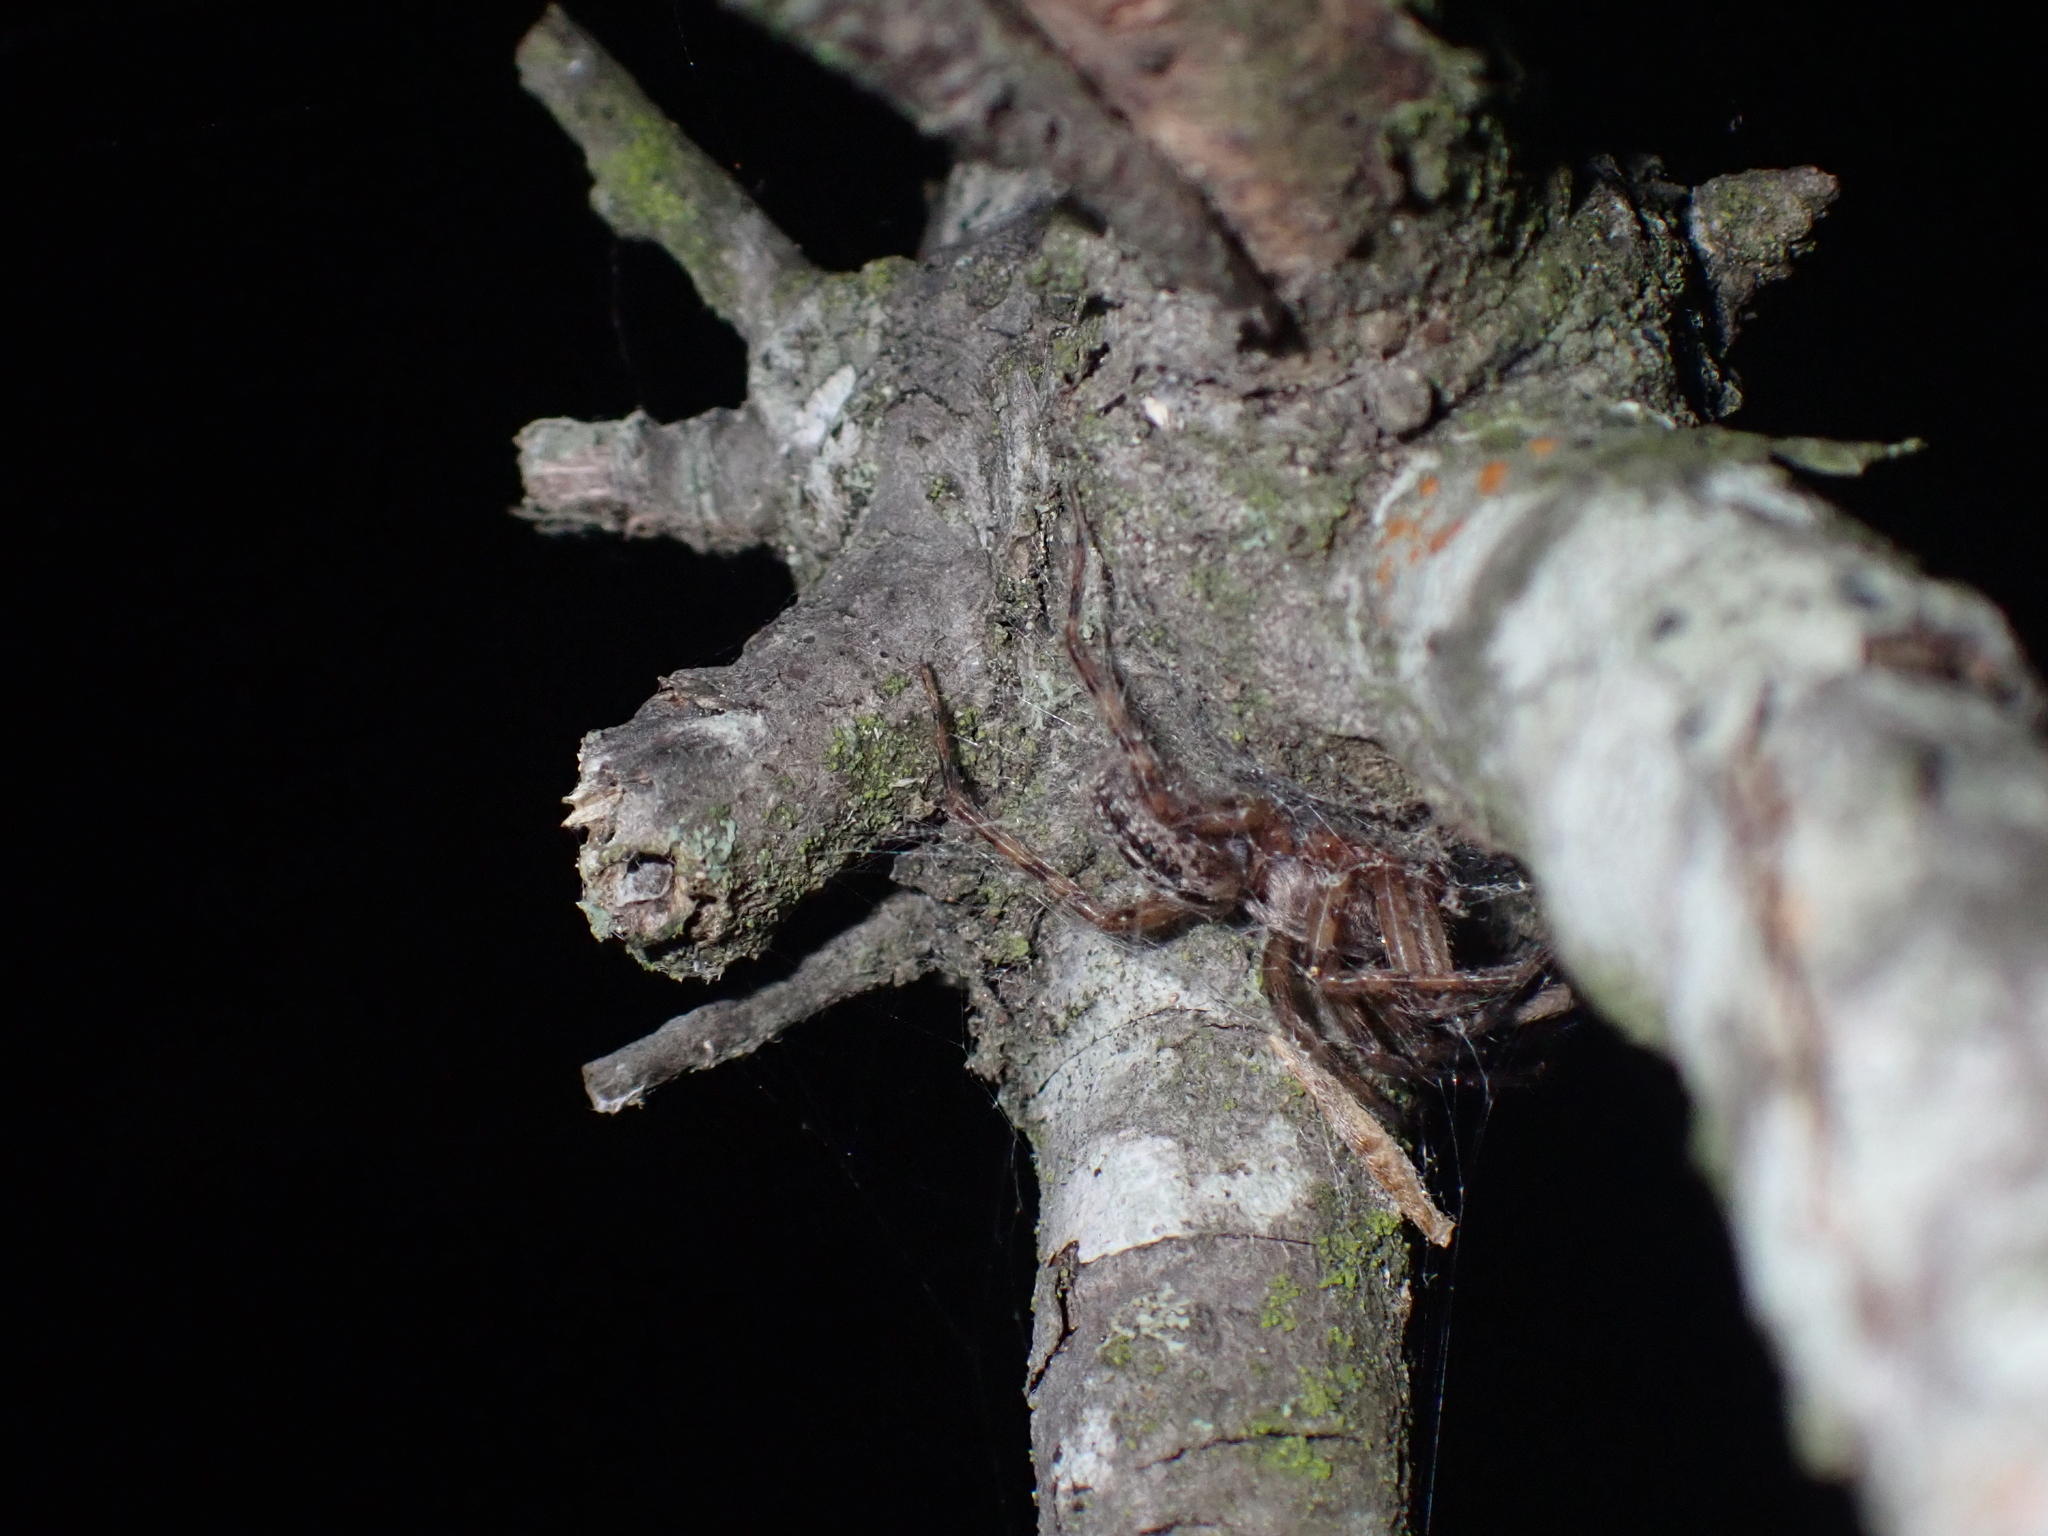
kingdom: Animalia
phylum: Arthropoda
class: Arachnida
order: Araneae
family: Segestriidae
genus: Segestria
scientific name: Segestria bavarica
